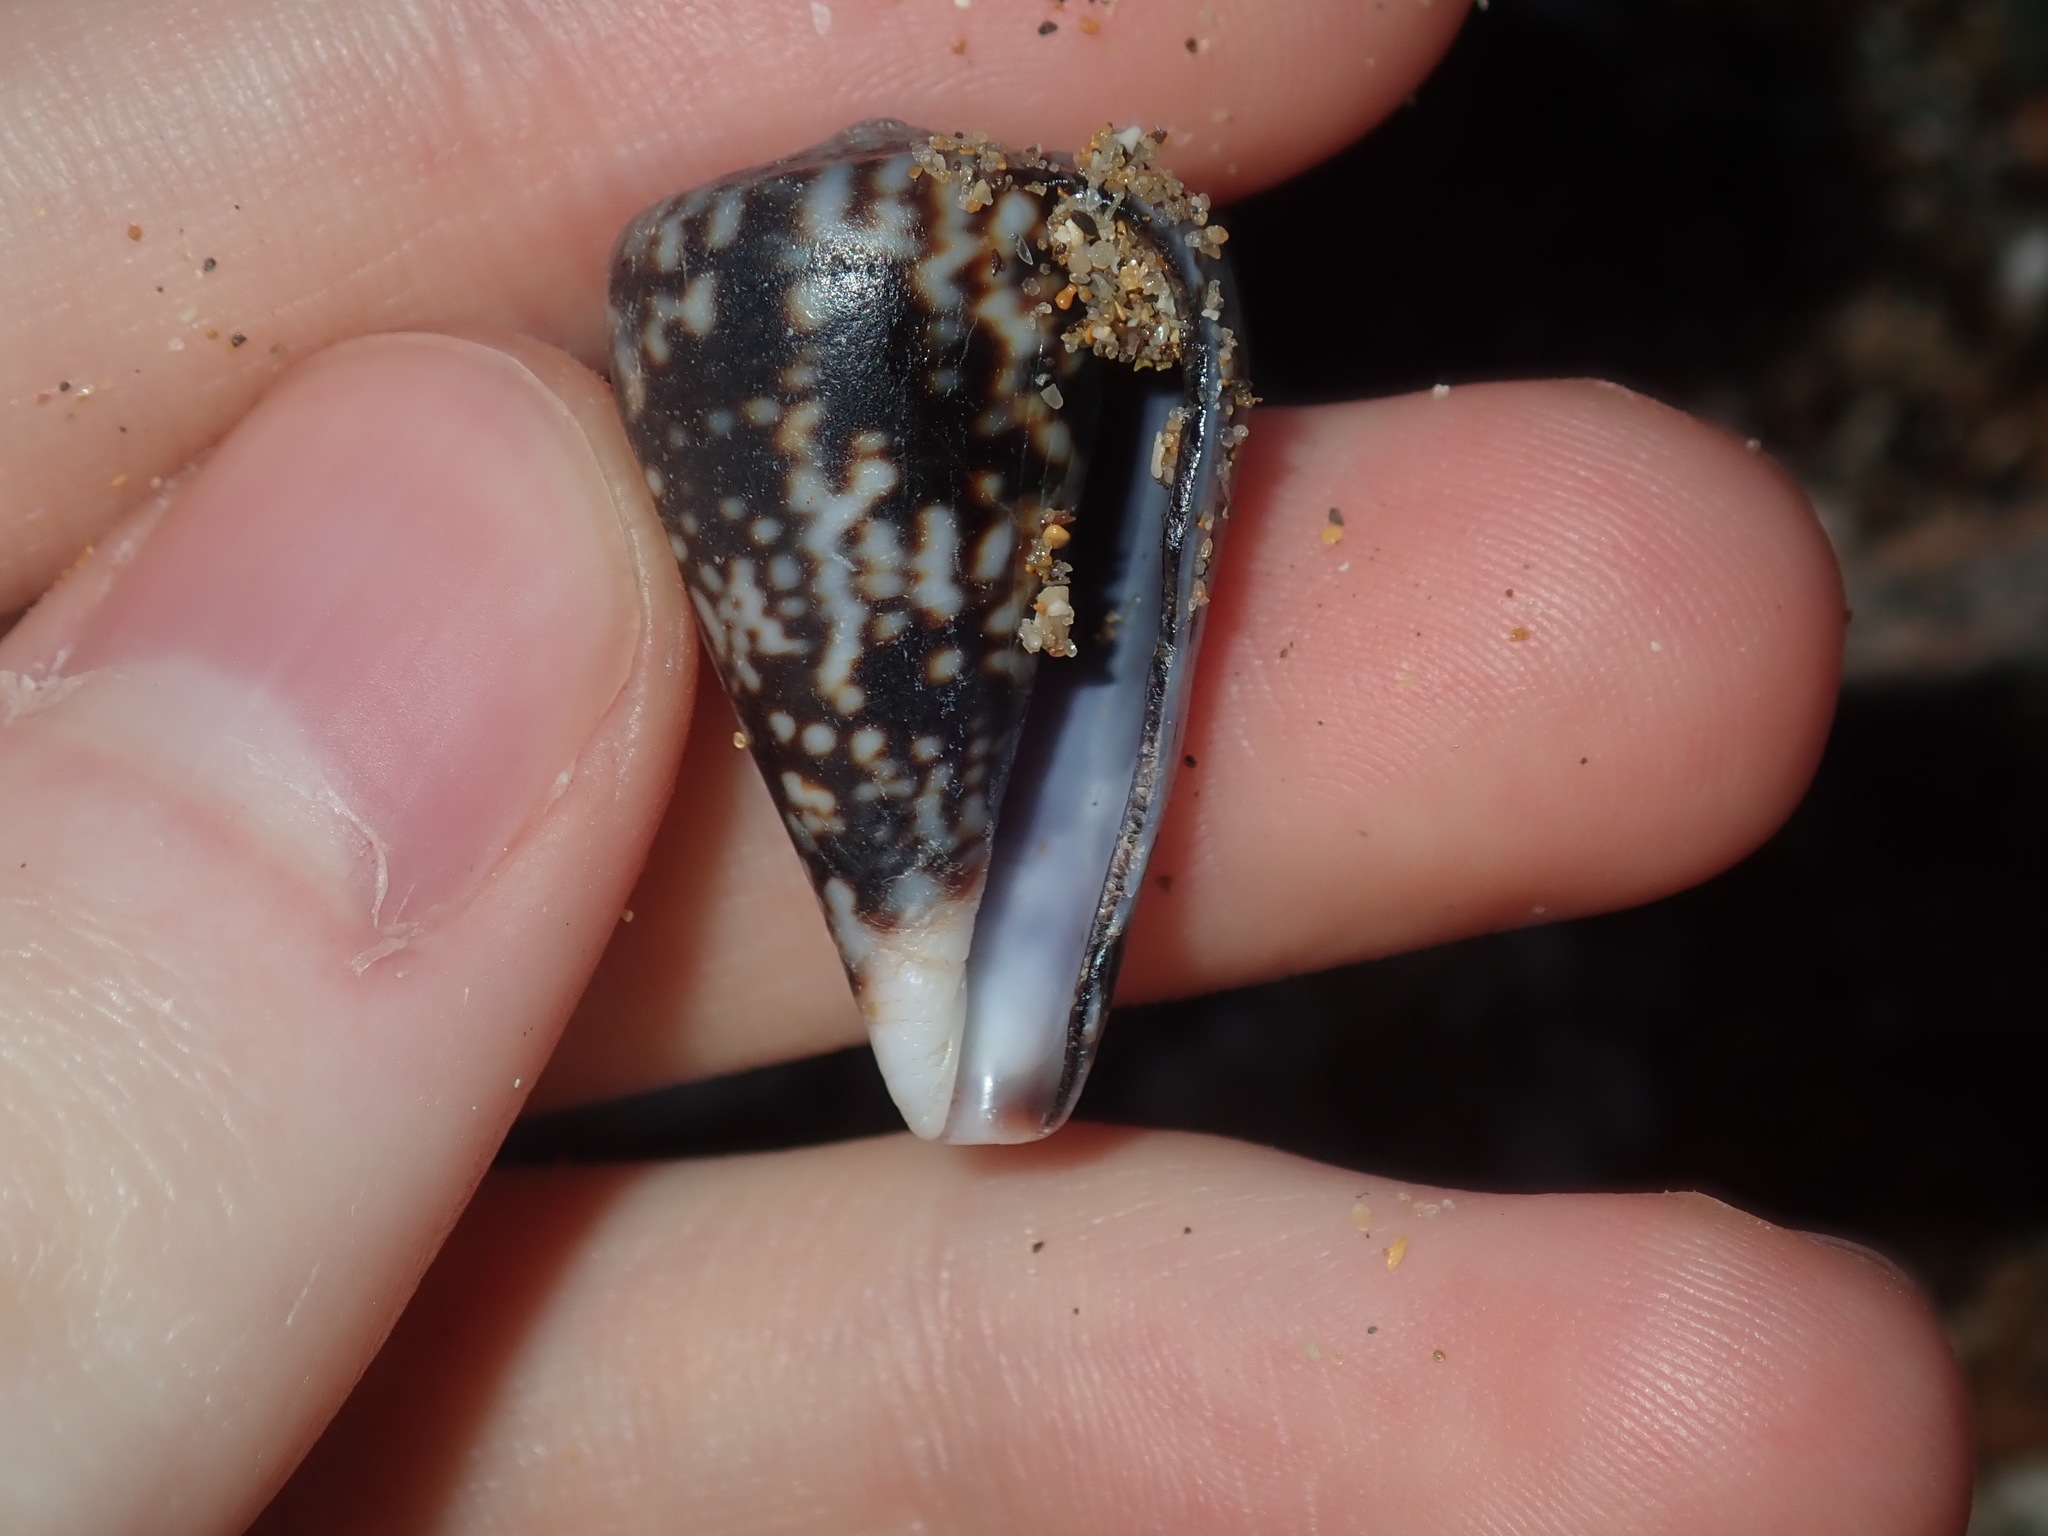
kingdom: Animalia
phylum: Mollusca
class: Gastropoda
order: Neogastropoda
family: Conidae
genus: Conus
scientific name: Conus papilliferus
